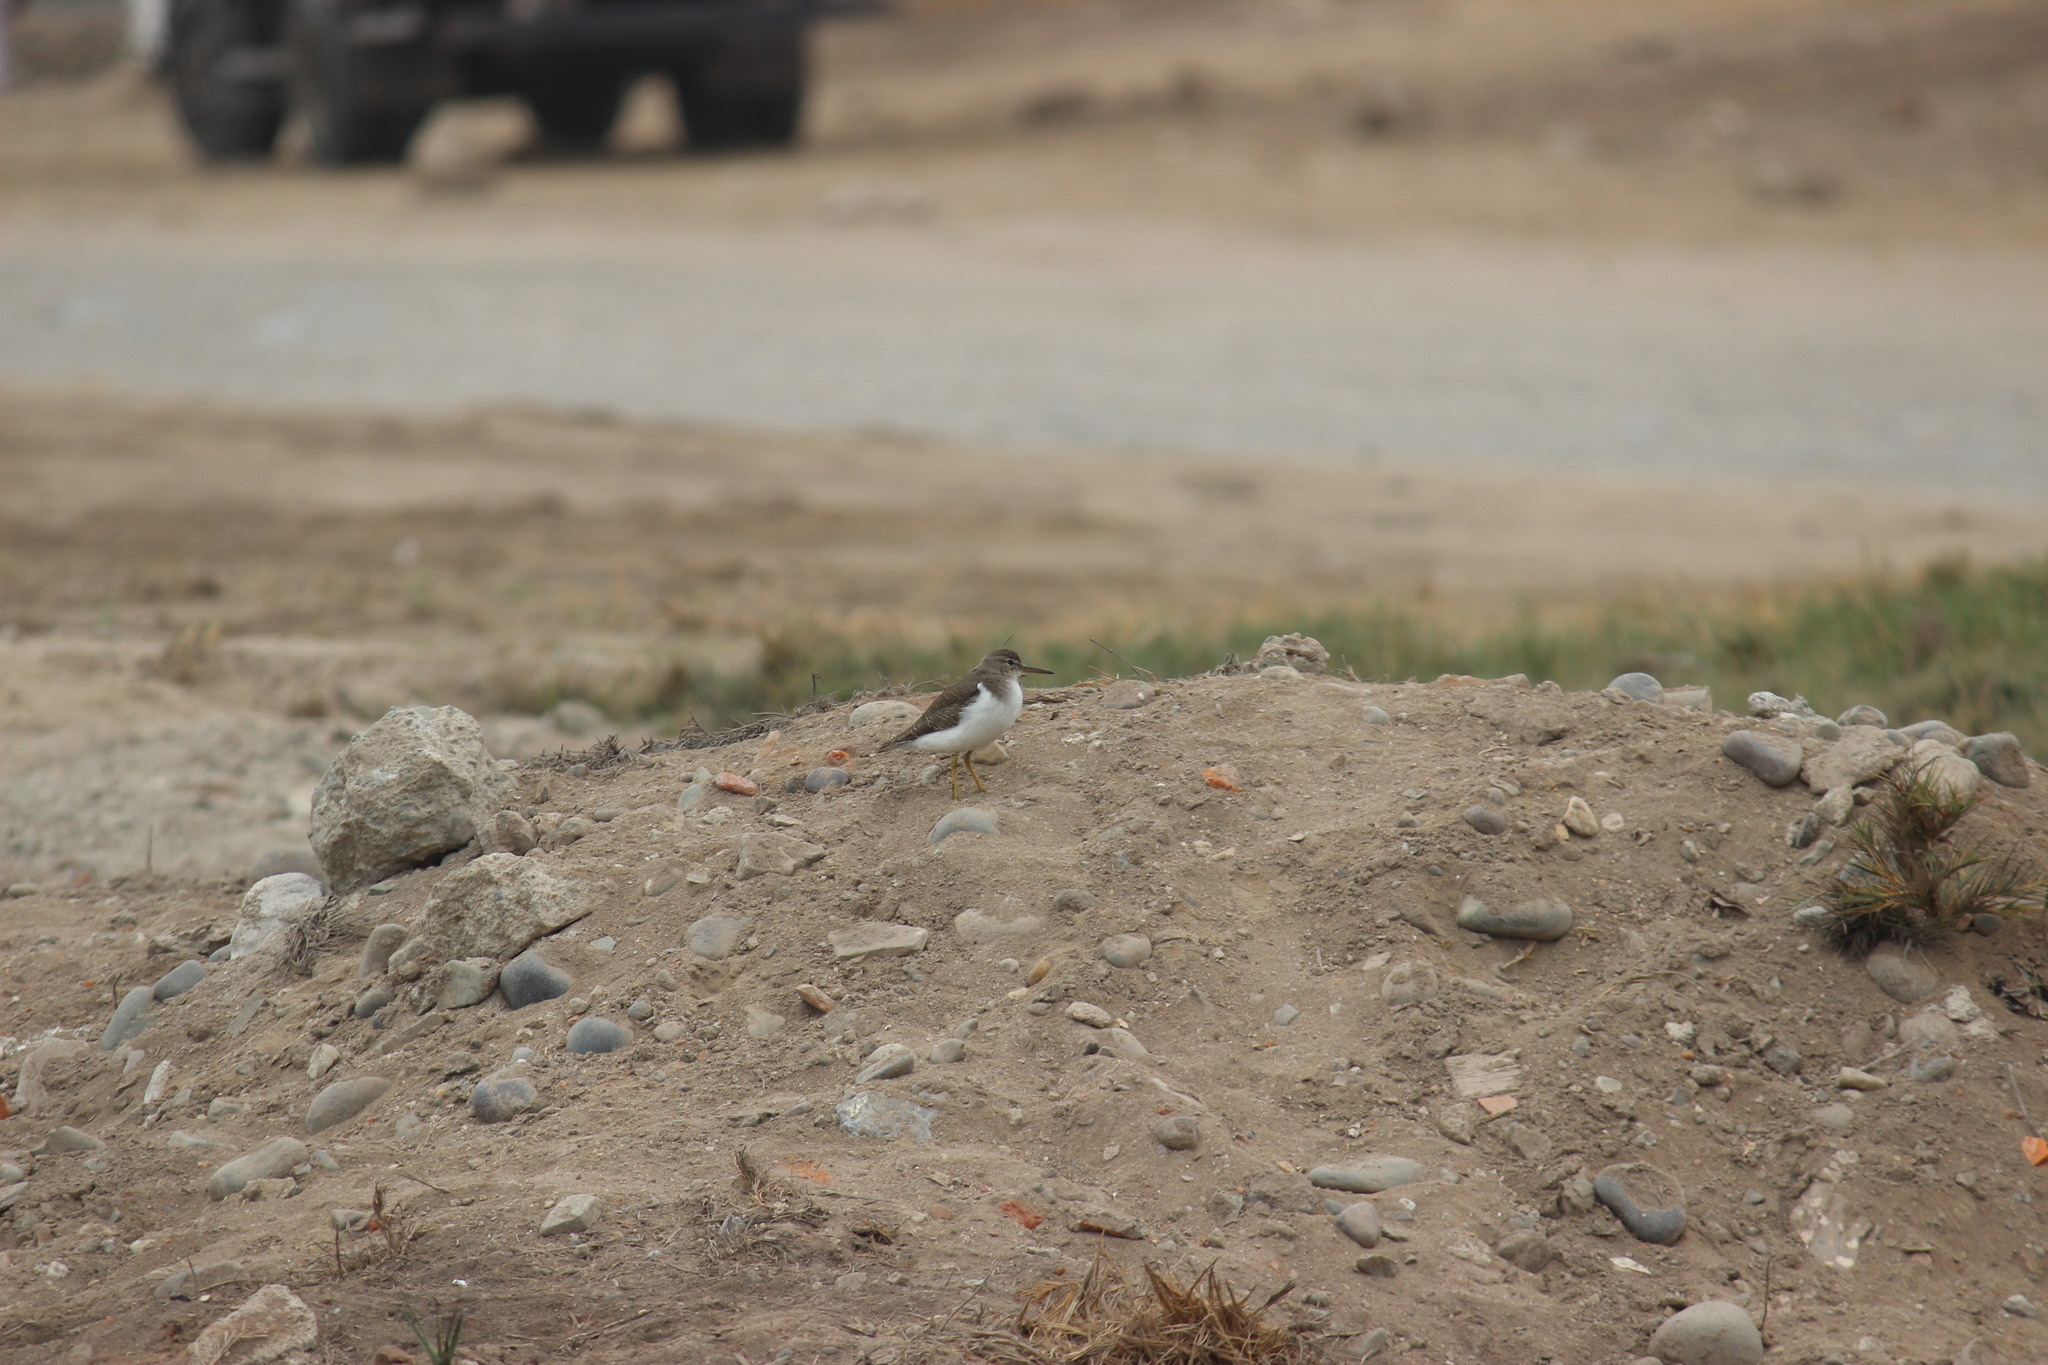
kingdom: Animalia
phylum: Chordata
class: Aves
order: Charadriiformes
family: Scolopacidae
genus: Actitis
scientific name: Actitis macularius
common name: Spotted sandpiper
